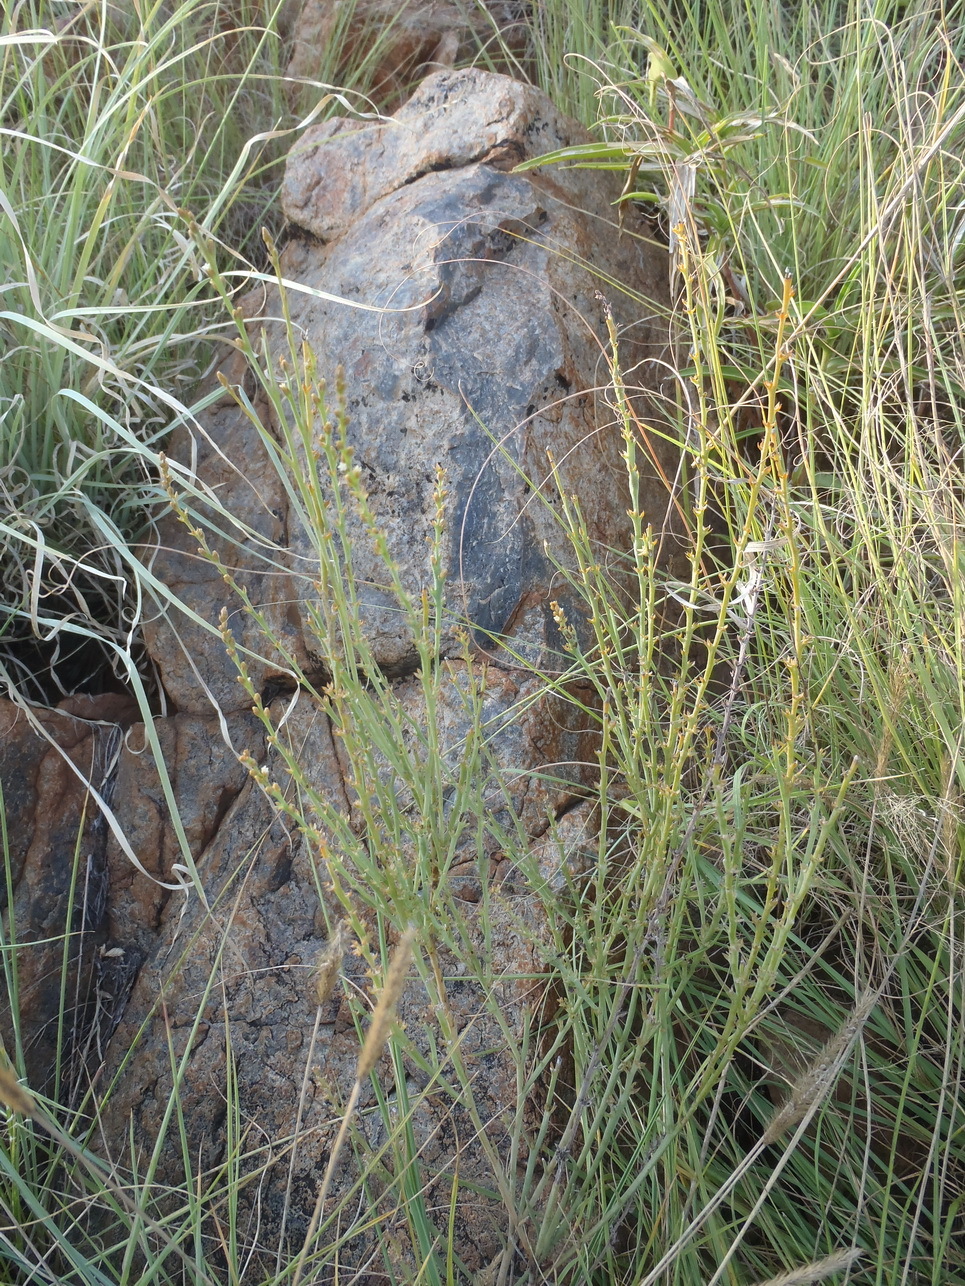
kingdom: Plantae
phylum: Tracheophyta
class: Magnoliopsida
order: Santalales
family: Thesiaceae
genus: Thesium
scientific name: Thesium magalismontanum
